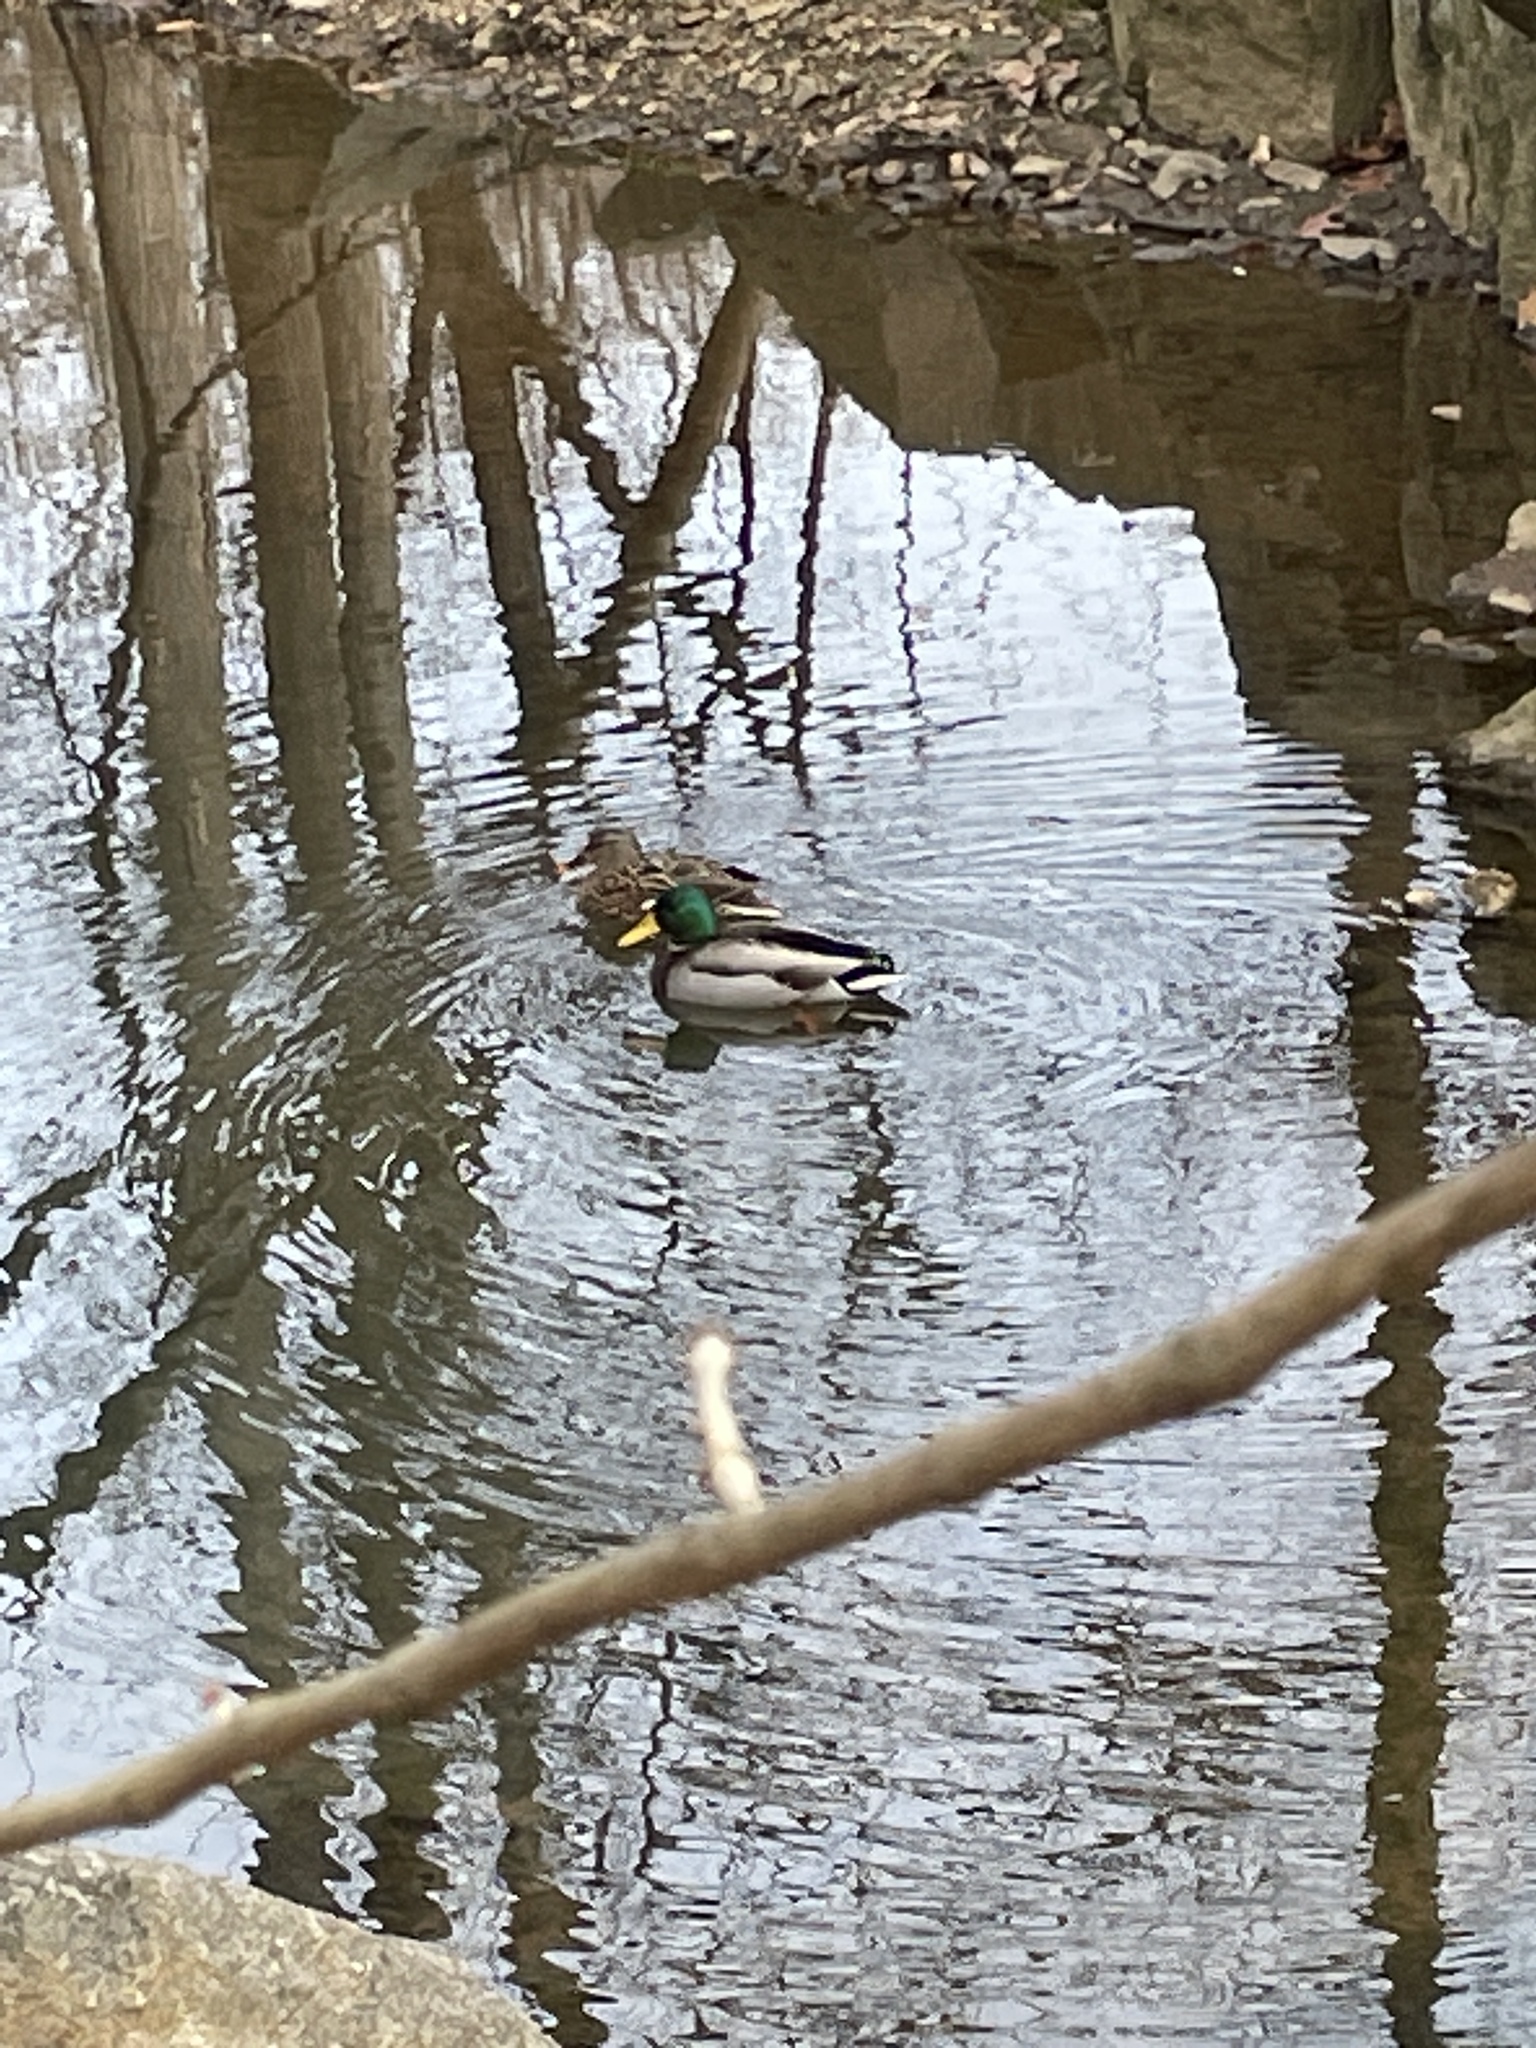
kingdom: Animalia
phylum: Chordata
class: Aves
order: Anseriformes
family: Anatidae
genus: Anas
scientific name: Anas platyrhynchos
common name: Mallard
